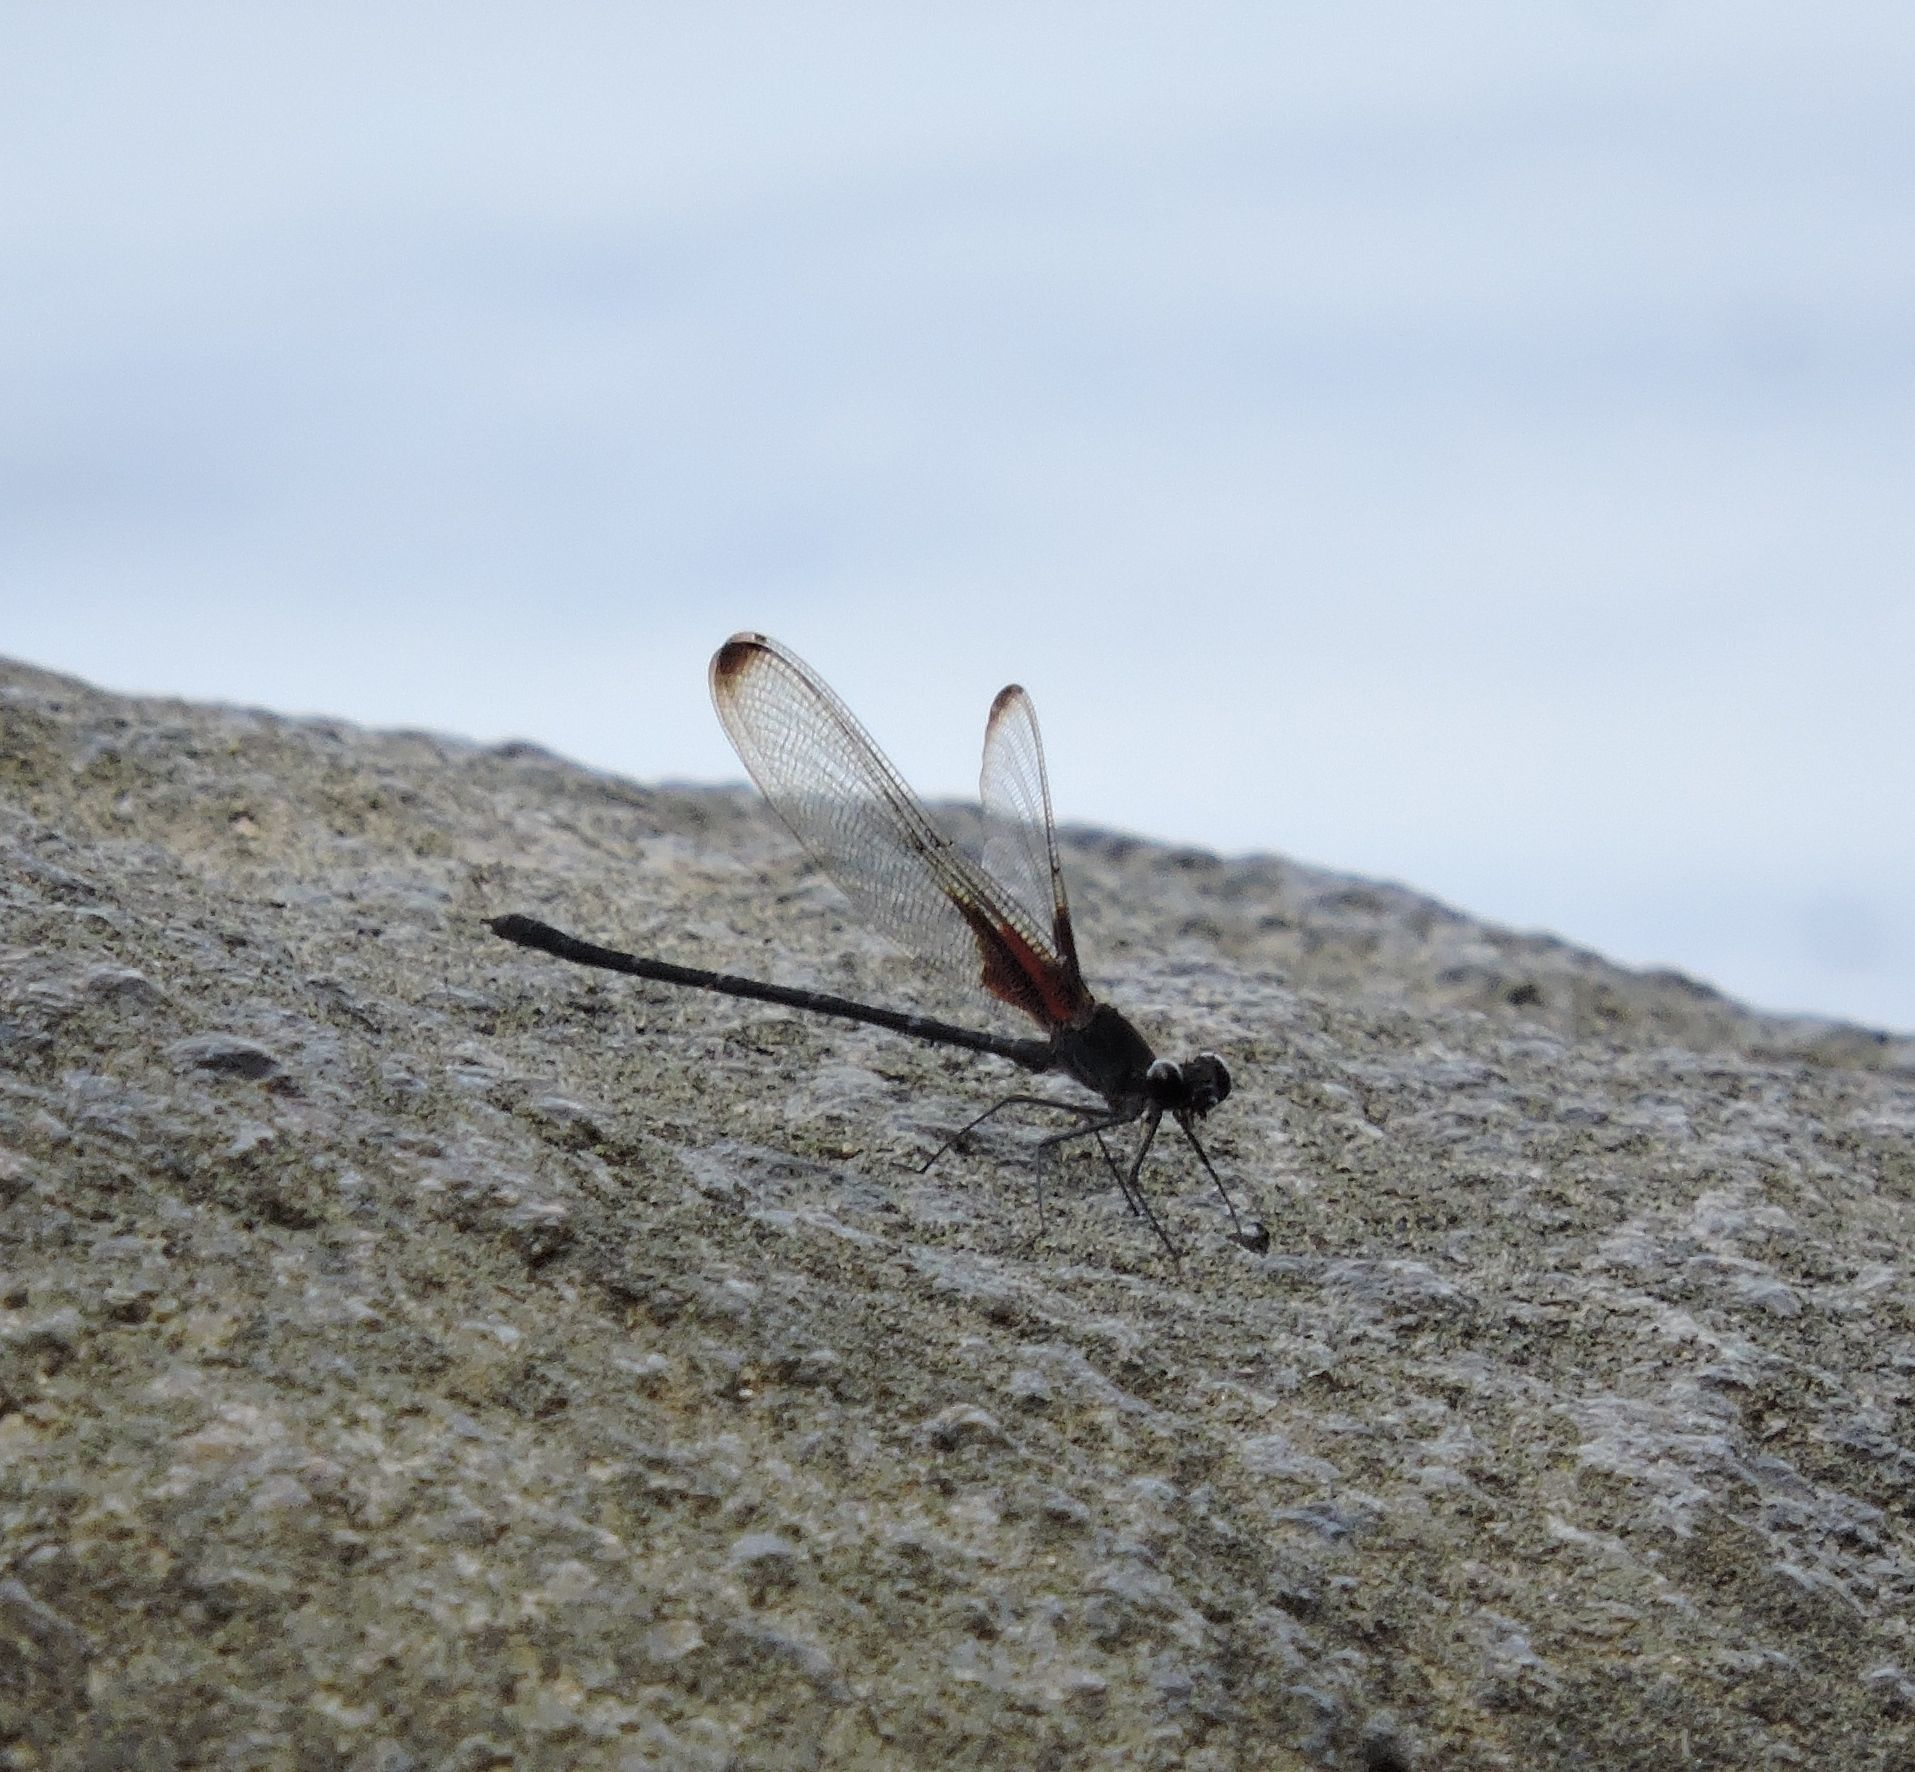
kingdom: Animalia
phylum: Arthropoda
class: Insecta
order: Odonata
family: Calopterygidae
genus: Hetaerina
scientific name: Hetaerina titia
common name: Smoky rubyspot
